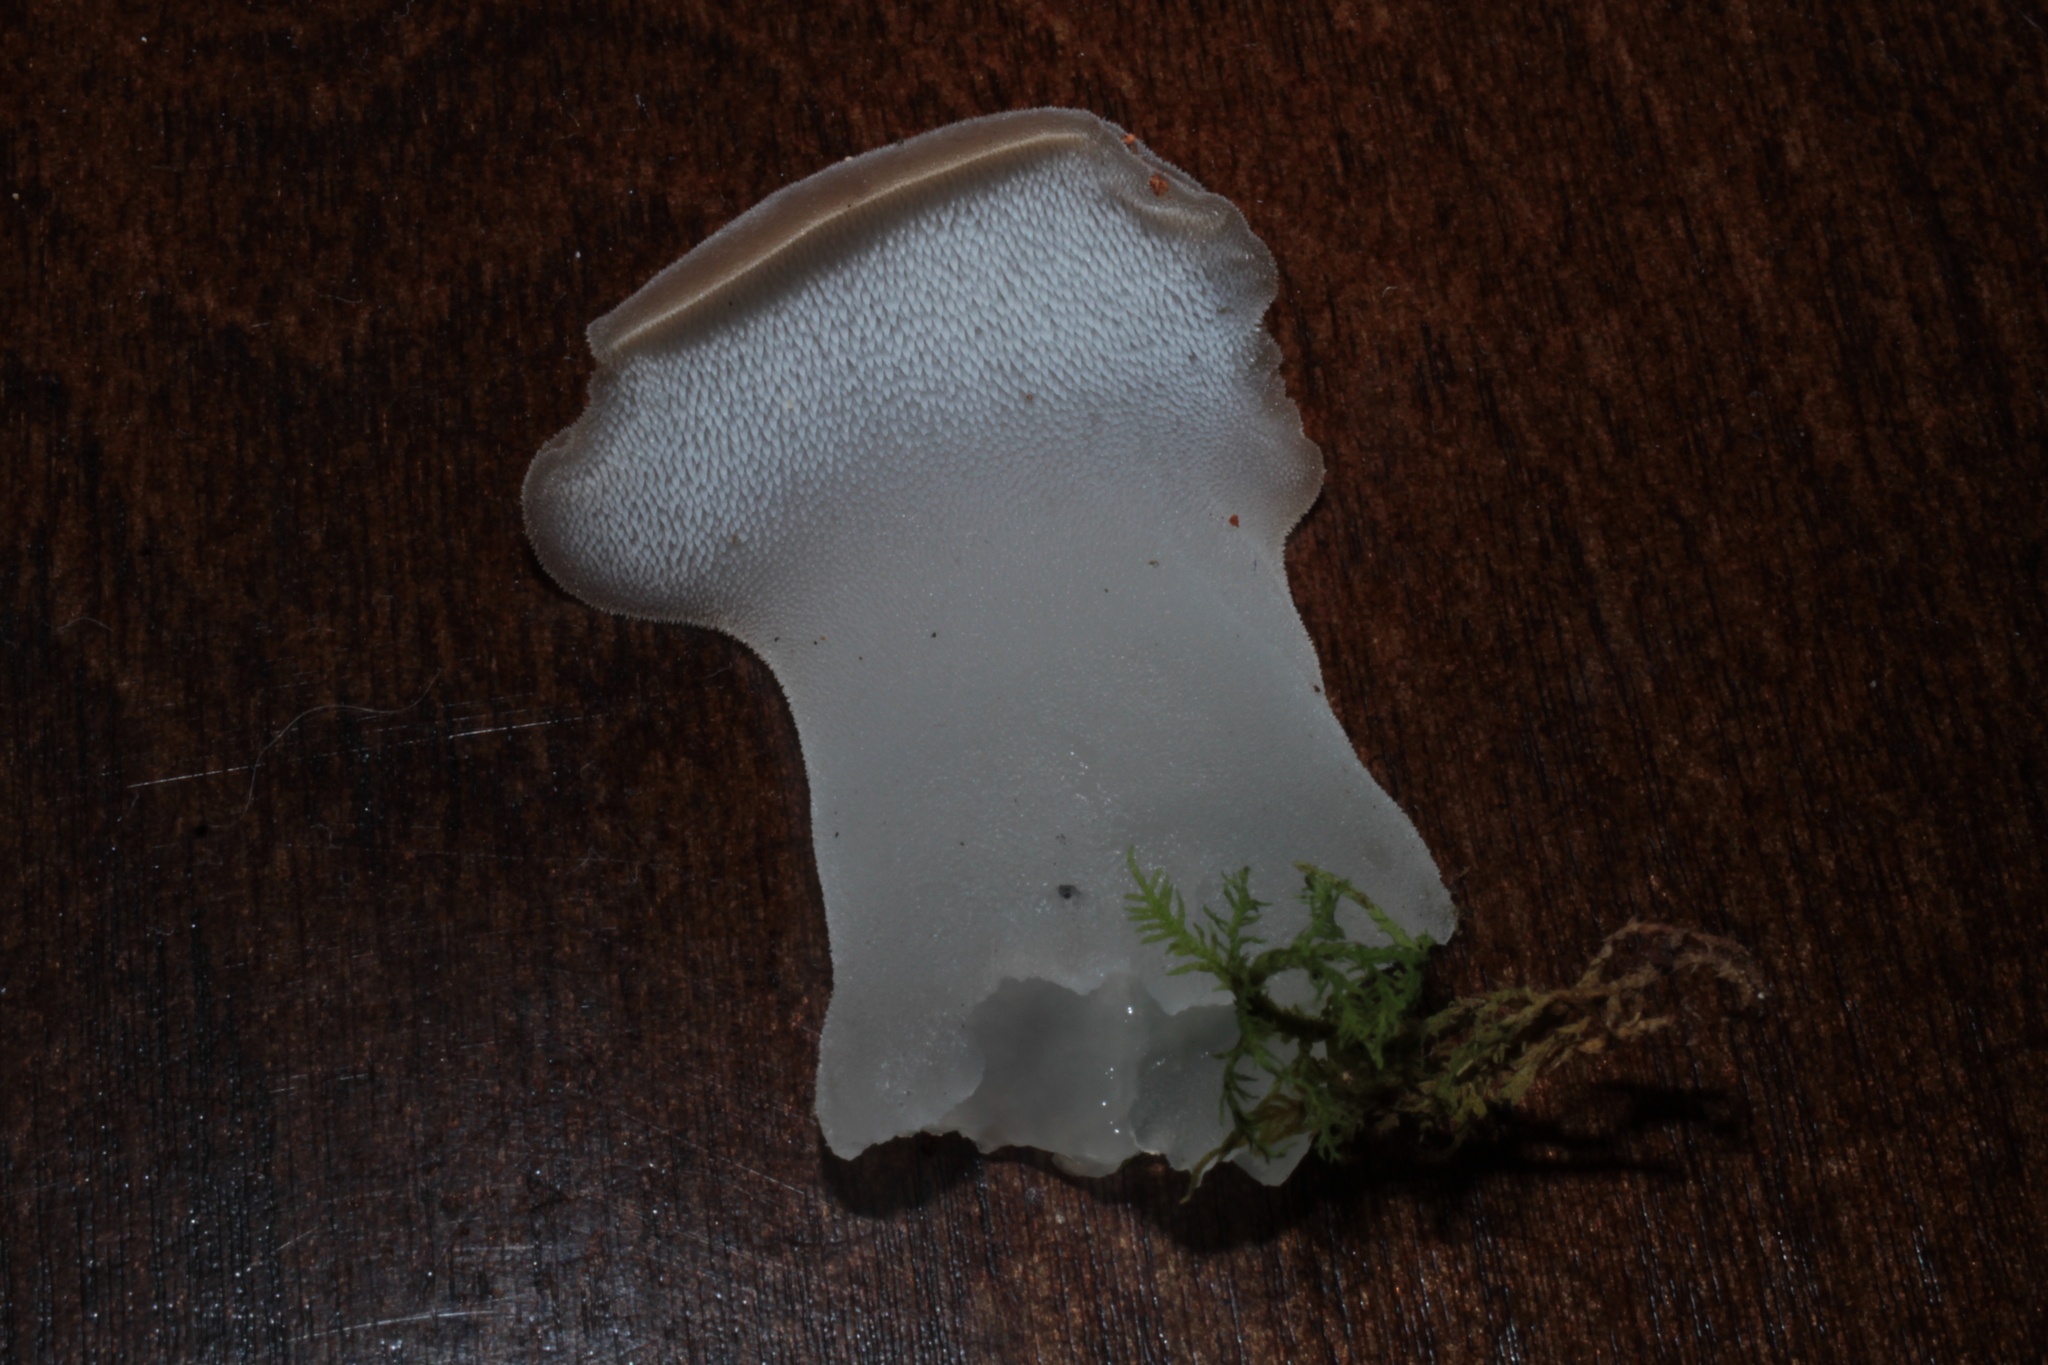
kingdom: Fungi
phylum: Basidiomycota
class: Agaricomycetes
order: Auriculariales
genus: Pseudohydnum
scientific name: Pseudohydnum gelatinosum
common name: Jelly tongue
